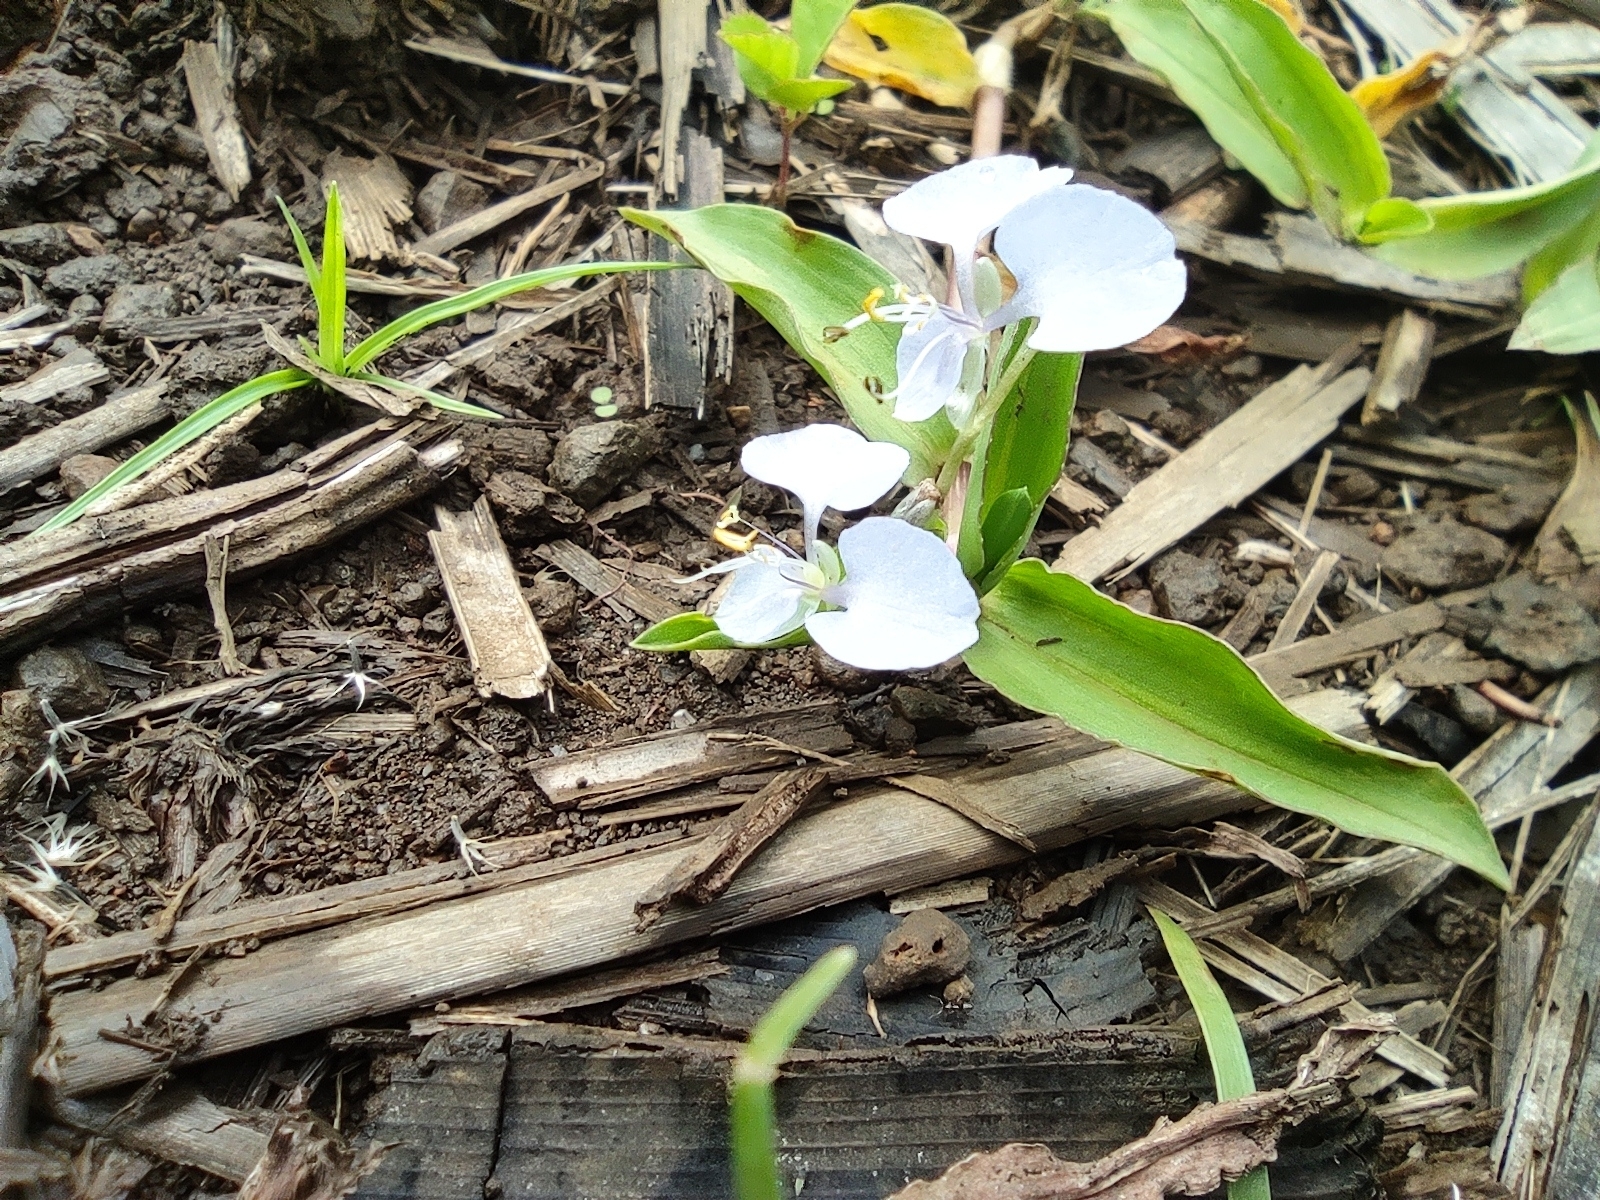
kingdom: Plantae
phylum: Tracheophyta
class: Liliopsida
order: Commelinales
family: Commelinaceae
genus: Commelina
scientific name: Commelina diffusa
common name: Climbing dayflower
